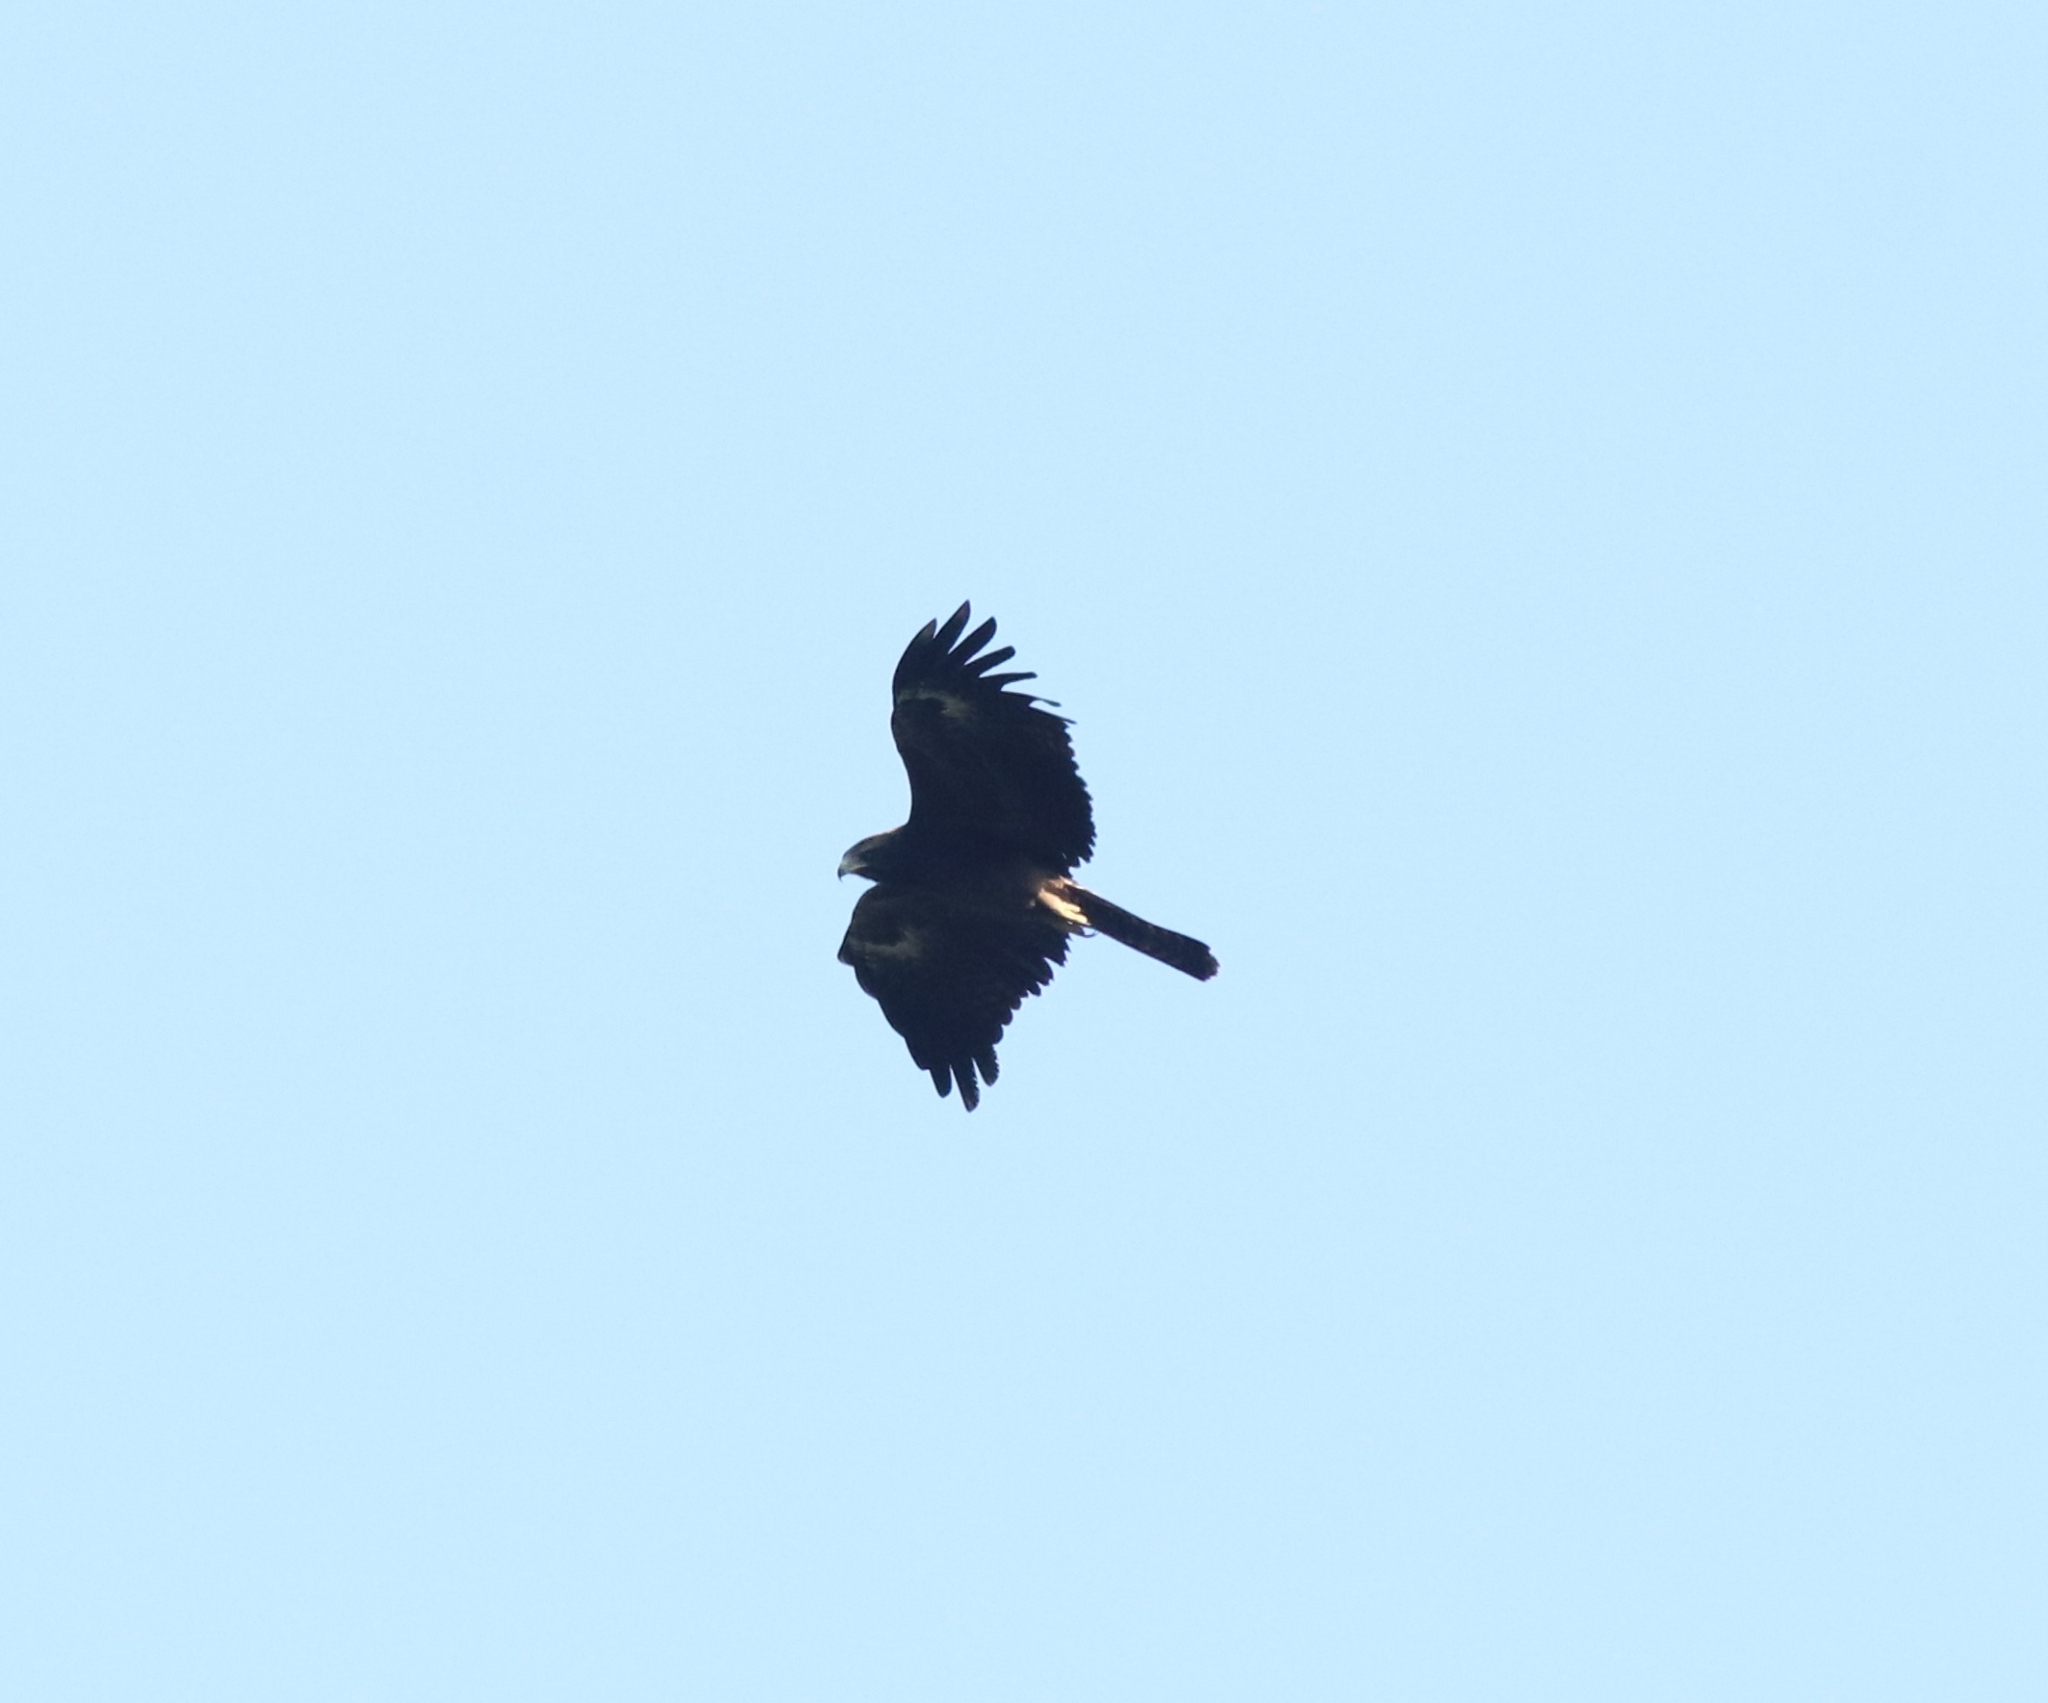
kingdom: Animalia
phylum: Chordata
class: Aves
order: Accipitriformes
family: Accipitridae
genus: Ictinaetus
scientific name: Ictinaetus malayensis
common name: Black eagle
